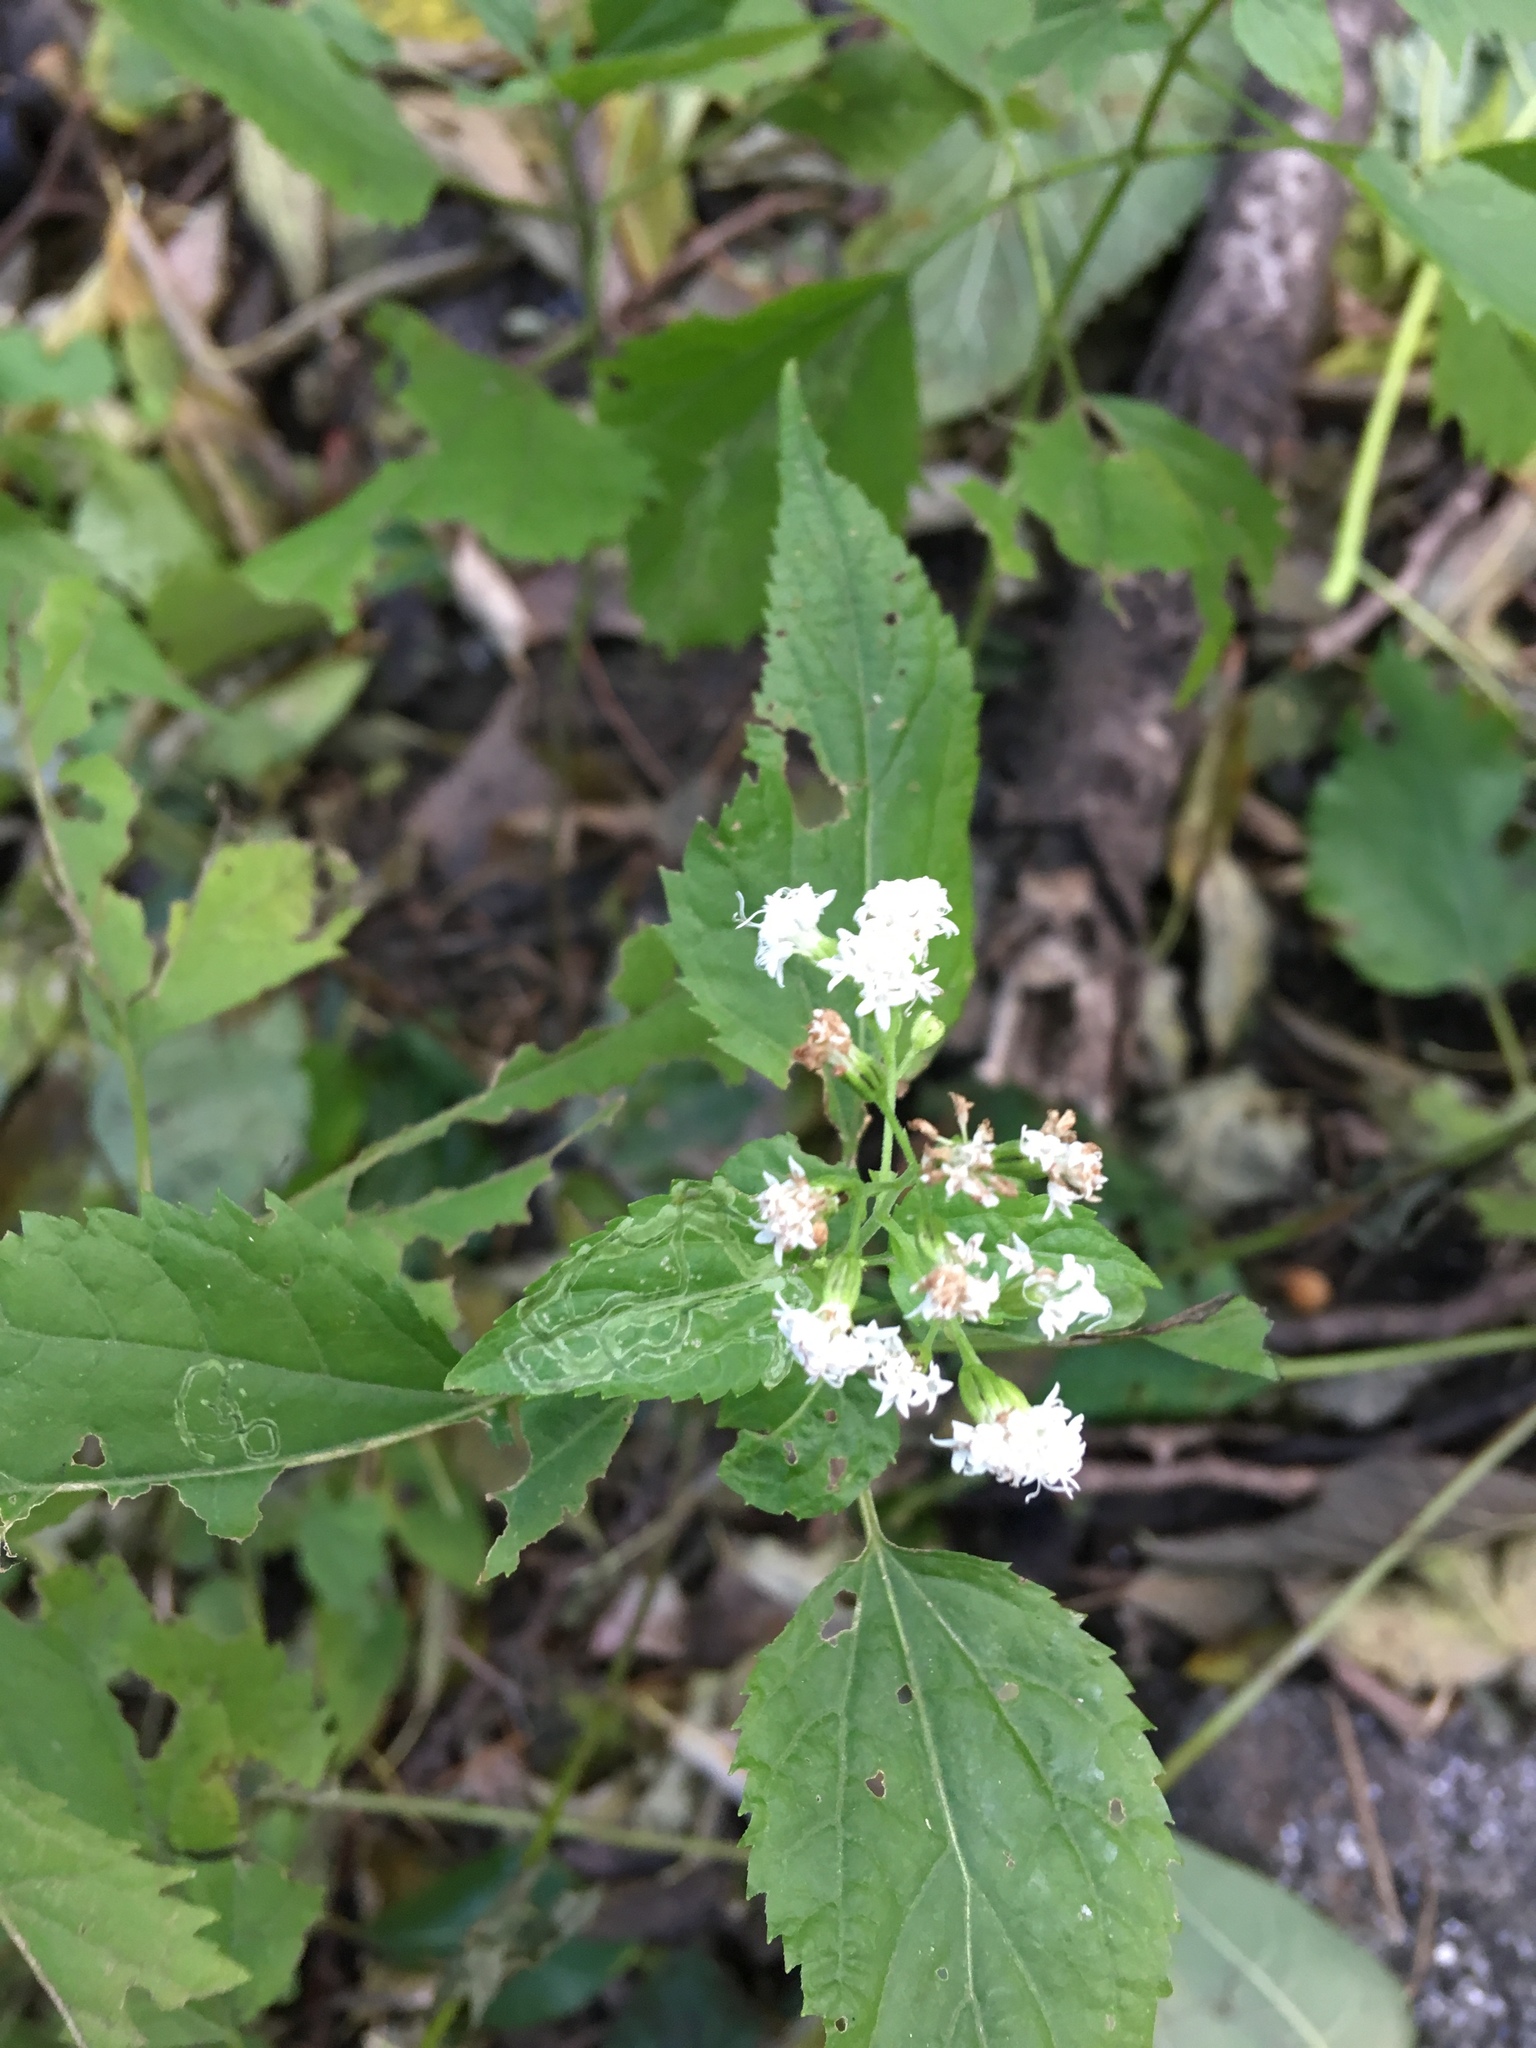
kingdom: Plantae
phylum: Tracheophyta
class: Magnoliopsida
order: Asterales
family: Asteraceae
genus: Ageratina
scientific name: Ageratina altissima
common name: White snakeroot
